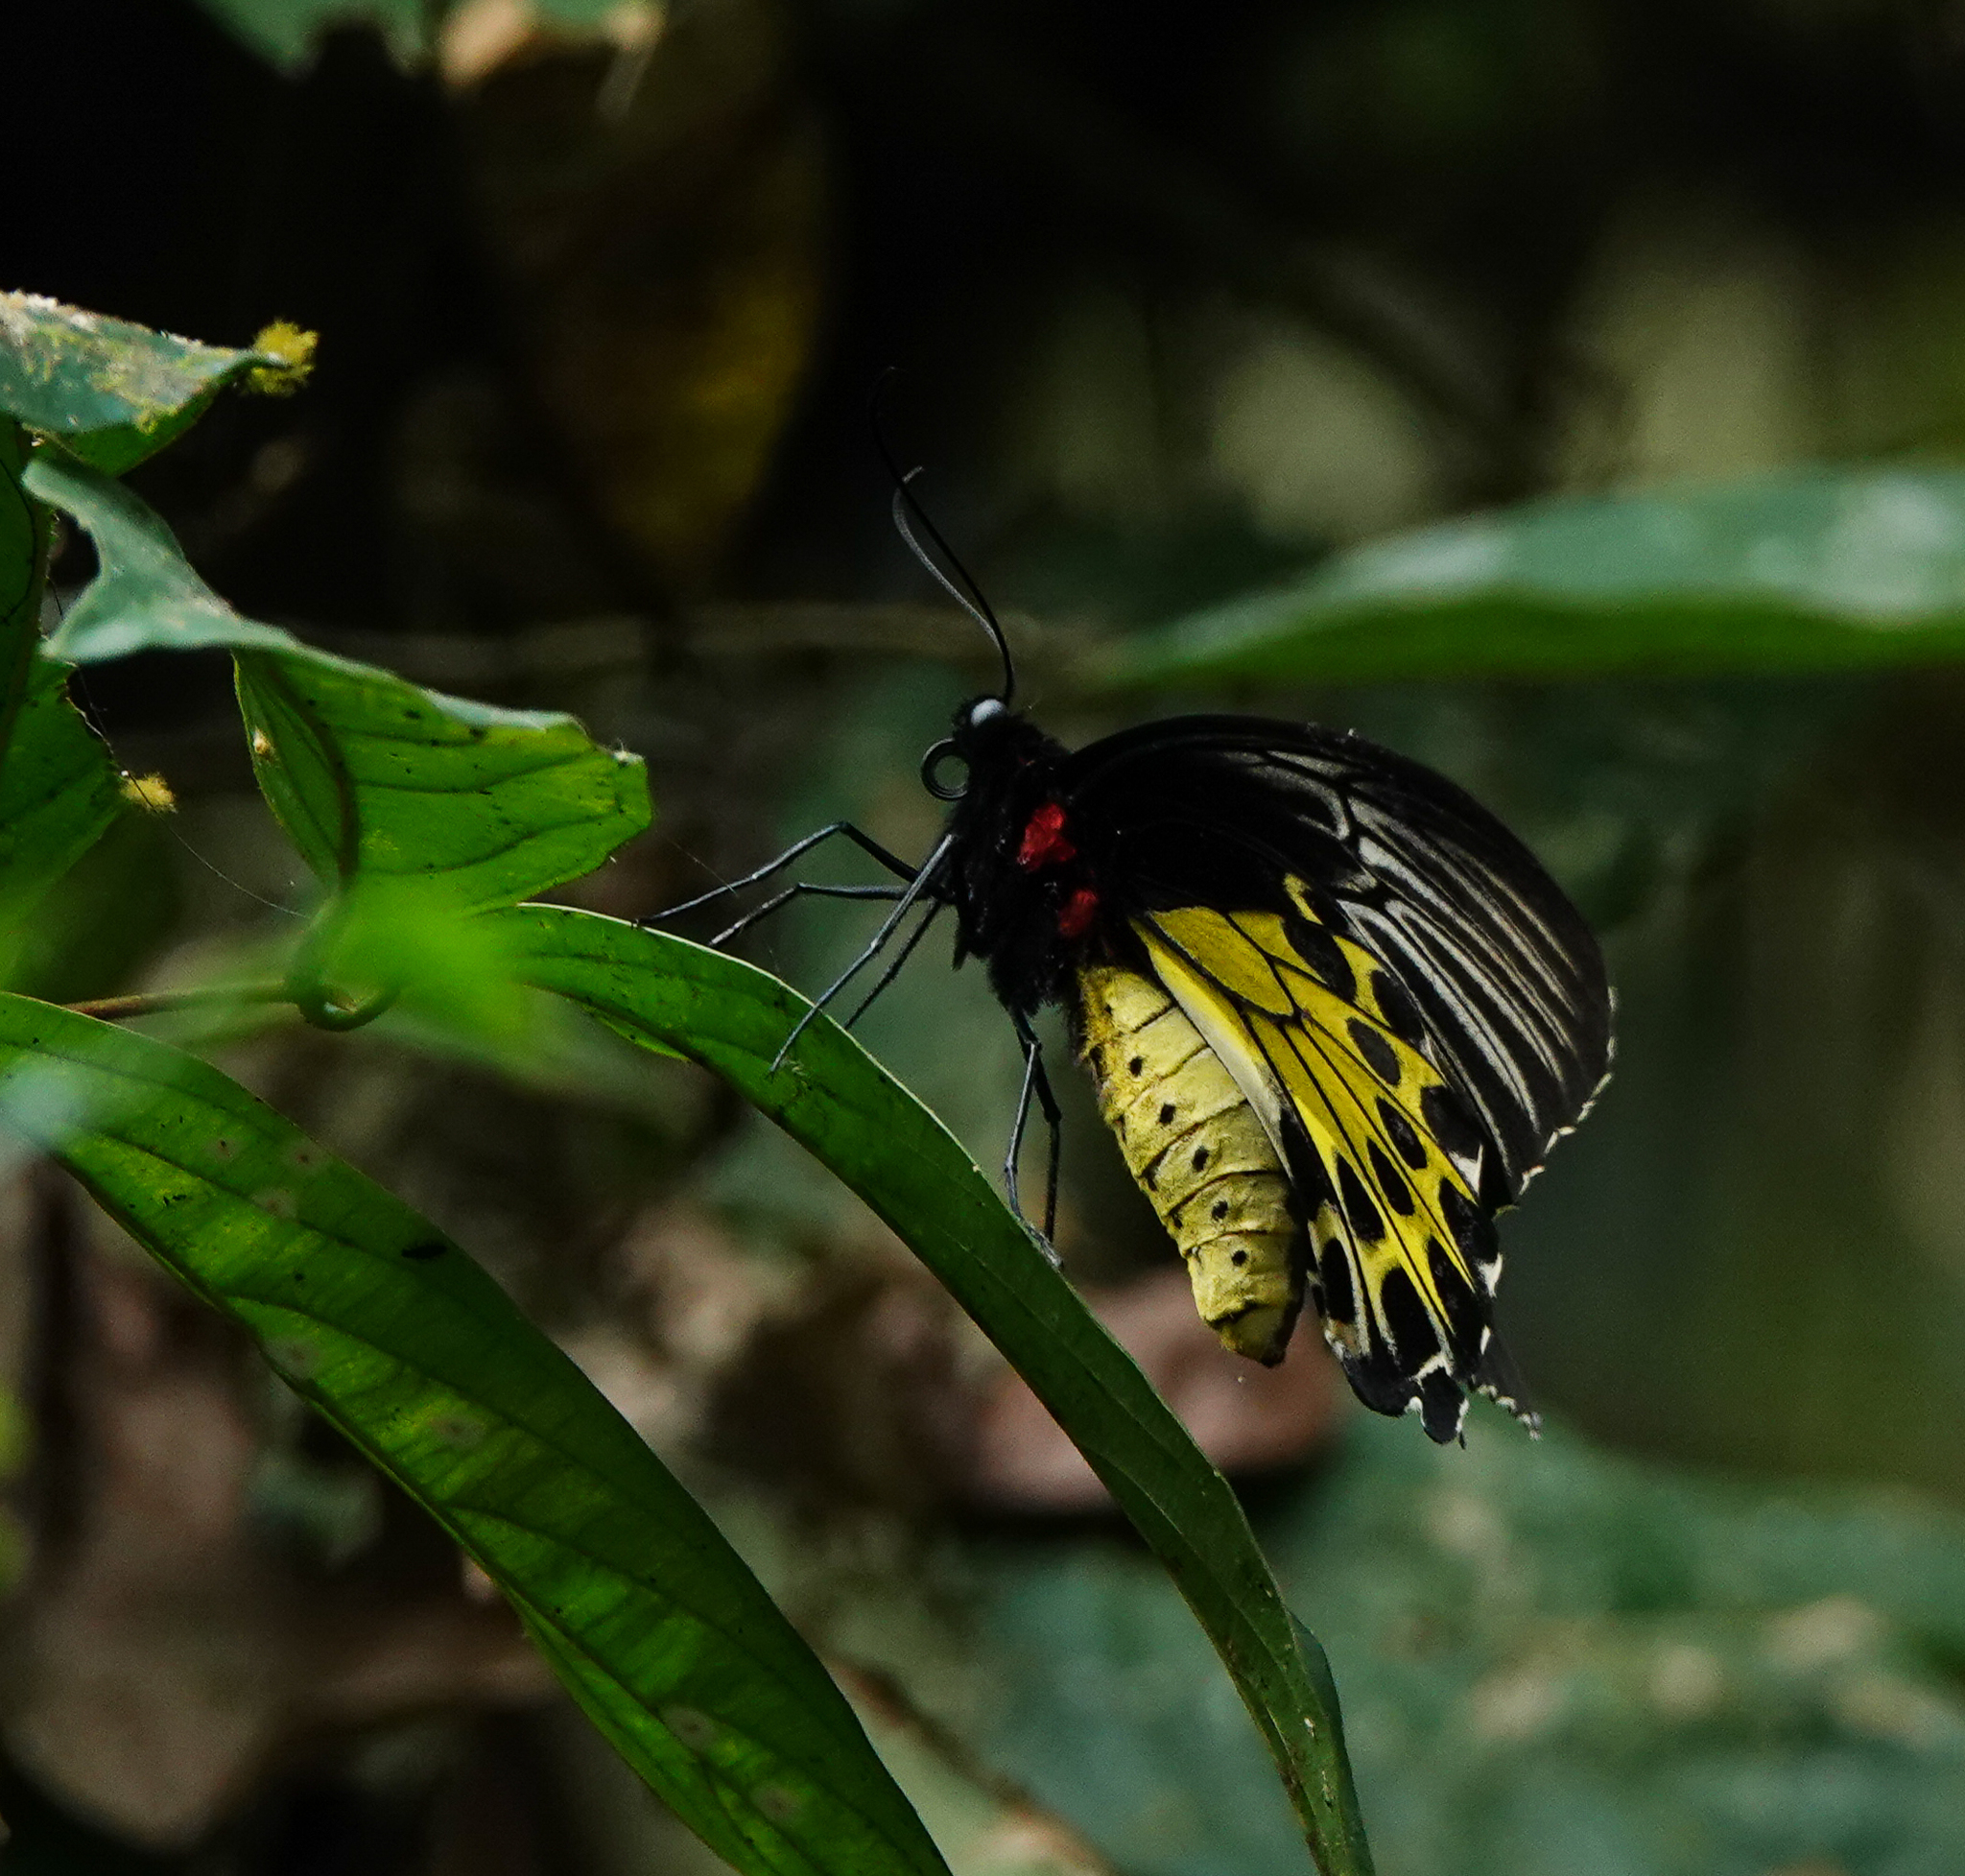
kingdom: Animalia
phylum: Arthropoda
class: Insecta
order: Lepidoptera
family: Papilionidae
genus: Troides
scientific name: Troides helena
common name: Common birdwing
